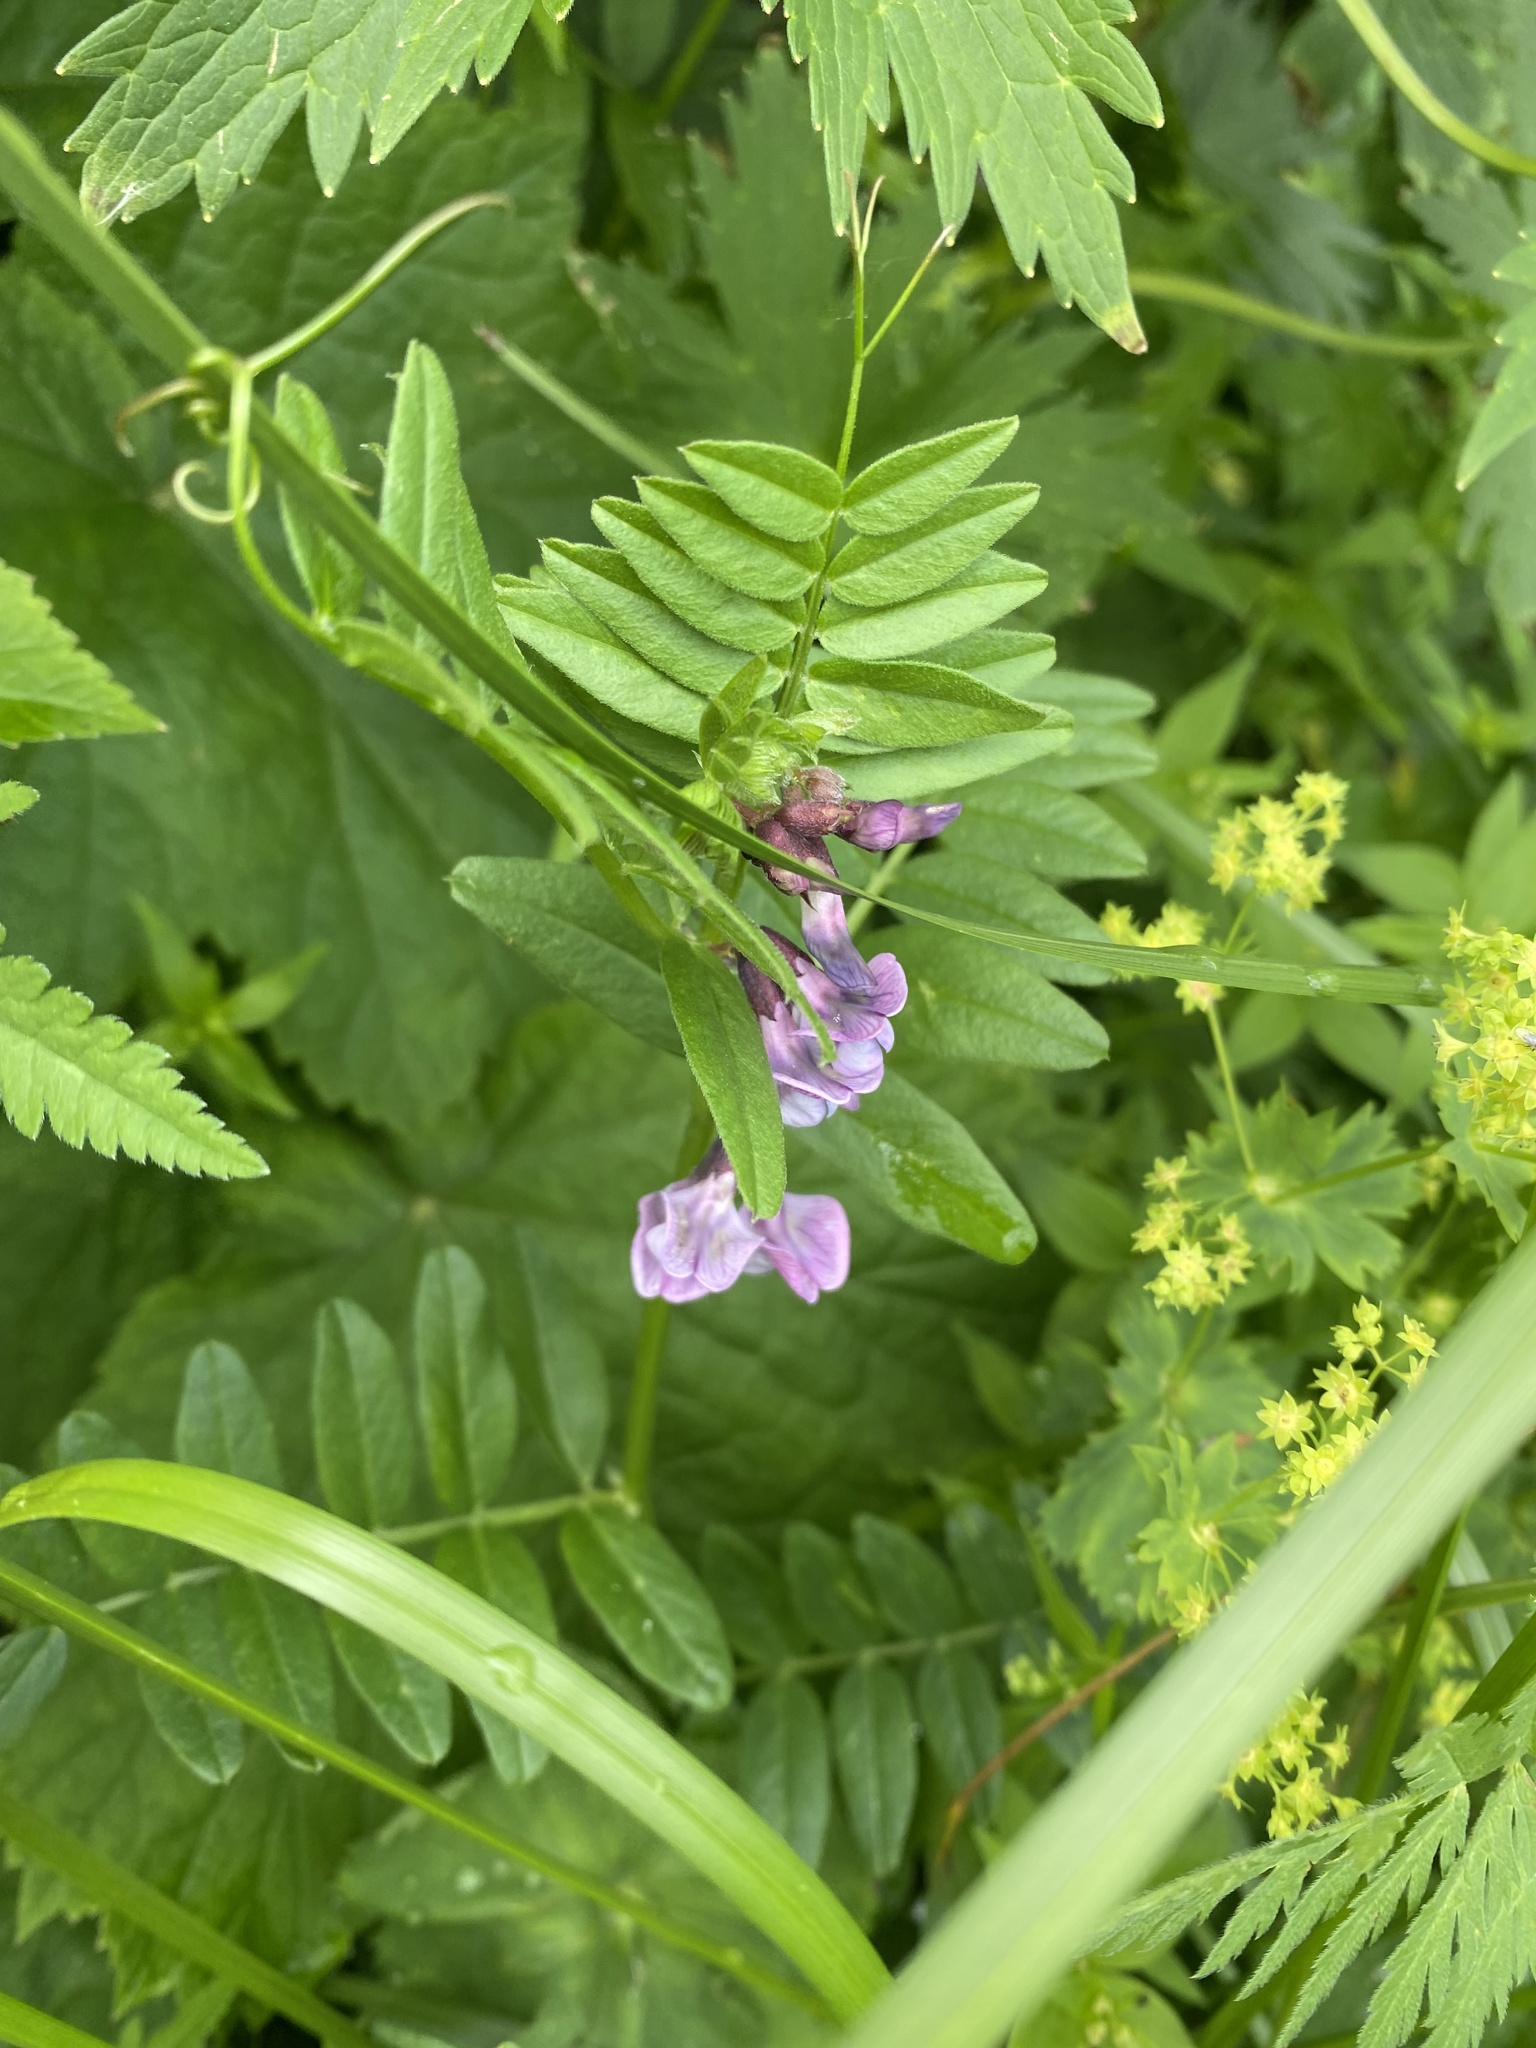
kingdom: Plantae
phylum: Tracheophyta
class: Magnoliopsida
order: Fabales
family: Fabaceae
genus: Vicia
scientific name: Vicia sepium
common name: Bush vetch
